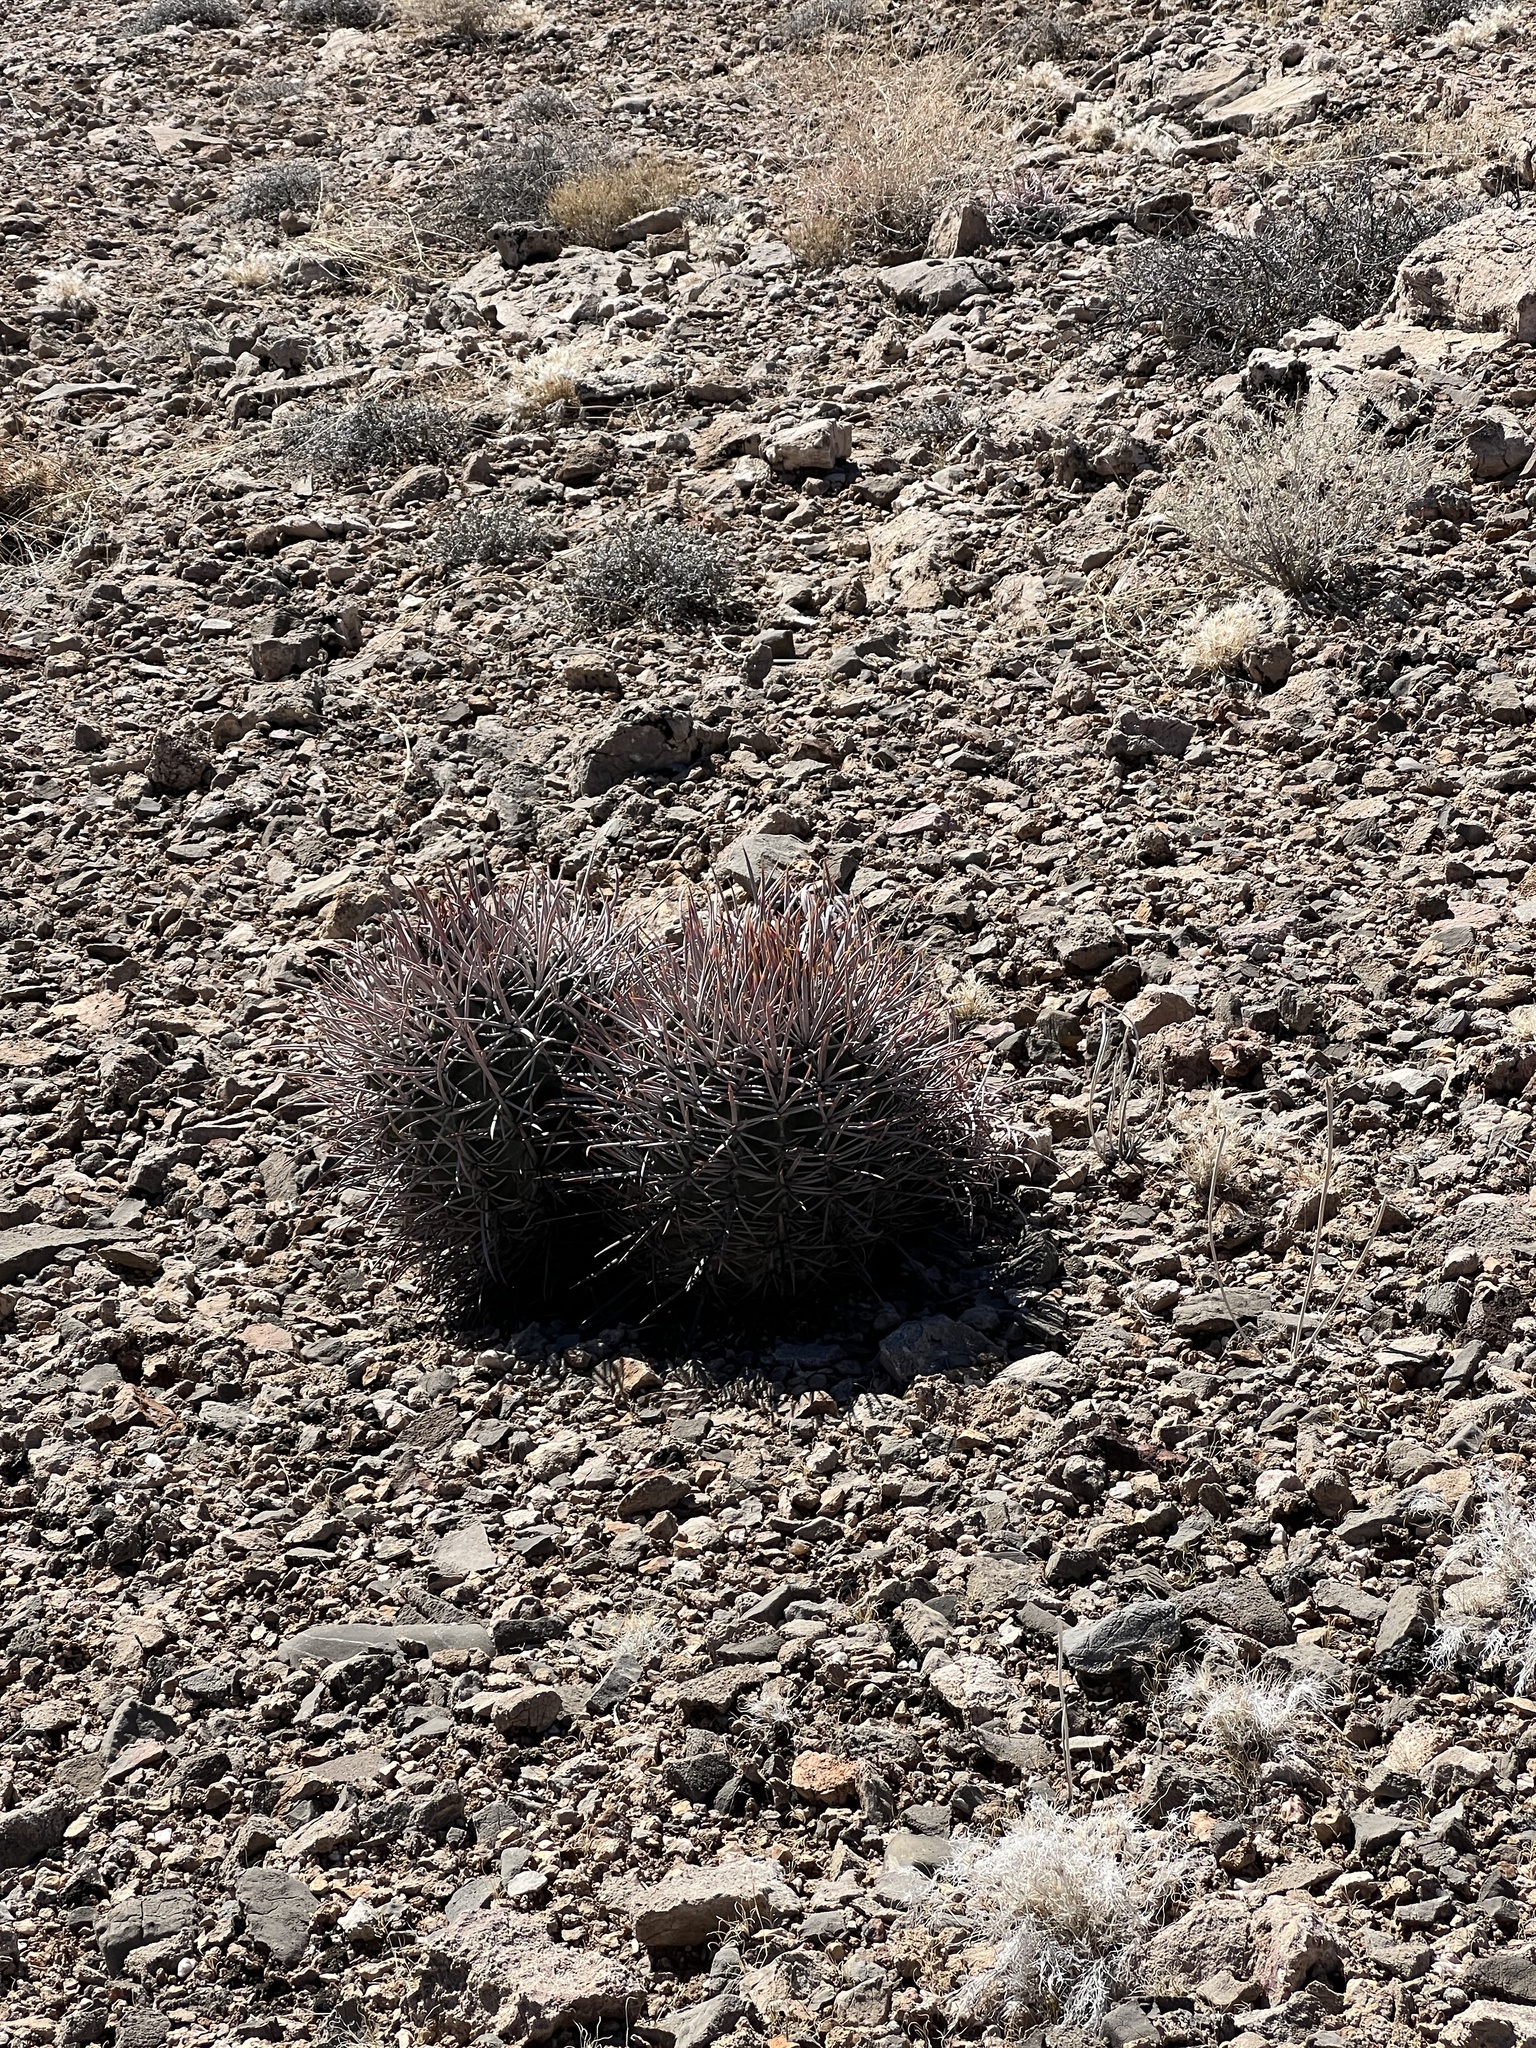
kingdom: Plantae
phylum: Tracheophyta
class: Magnoliopsida
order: Caryophyllales
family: Cactaceae
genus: Echinocactus
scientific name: Echinocactus polycephalus
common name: Cottontop cactus
